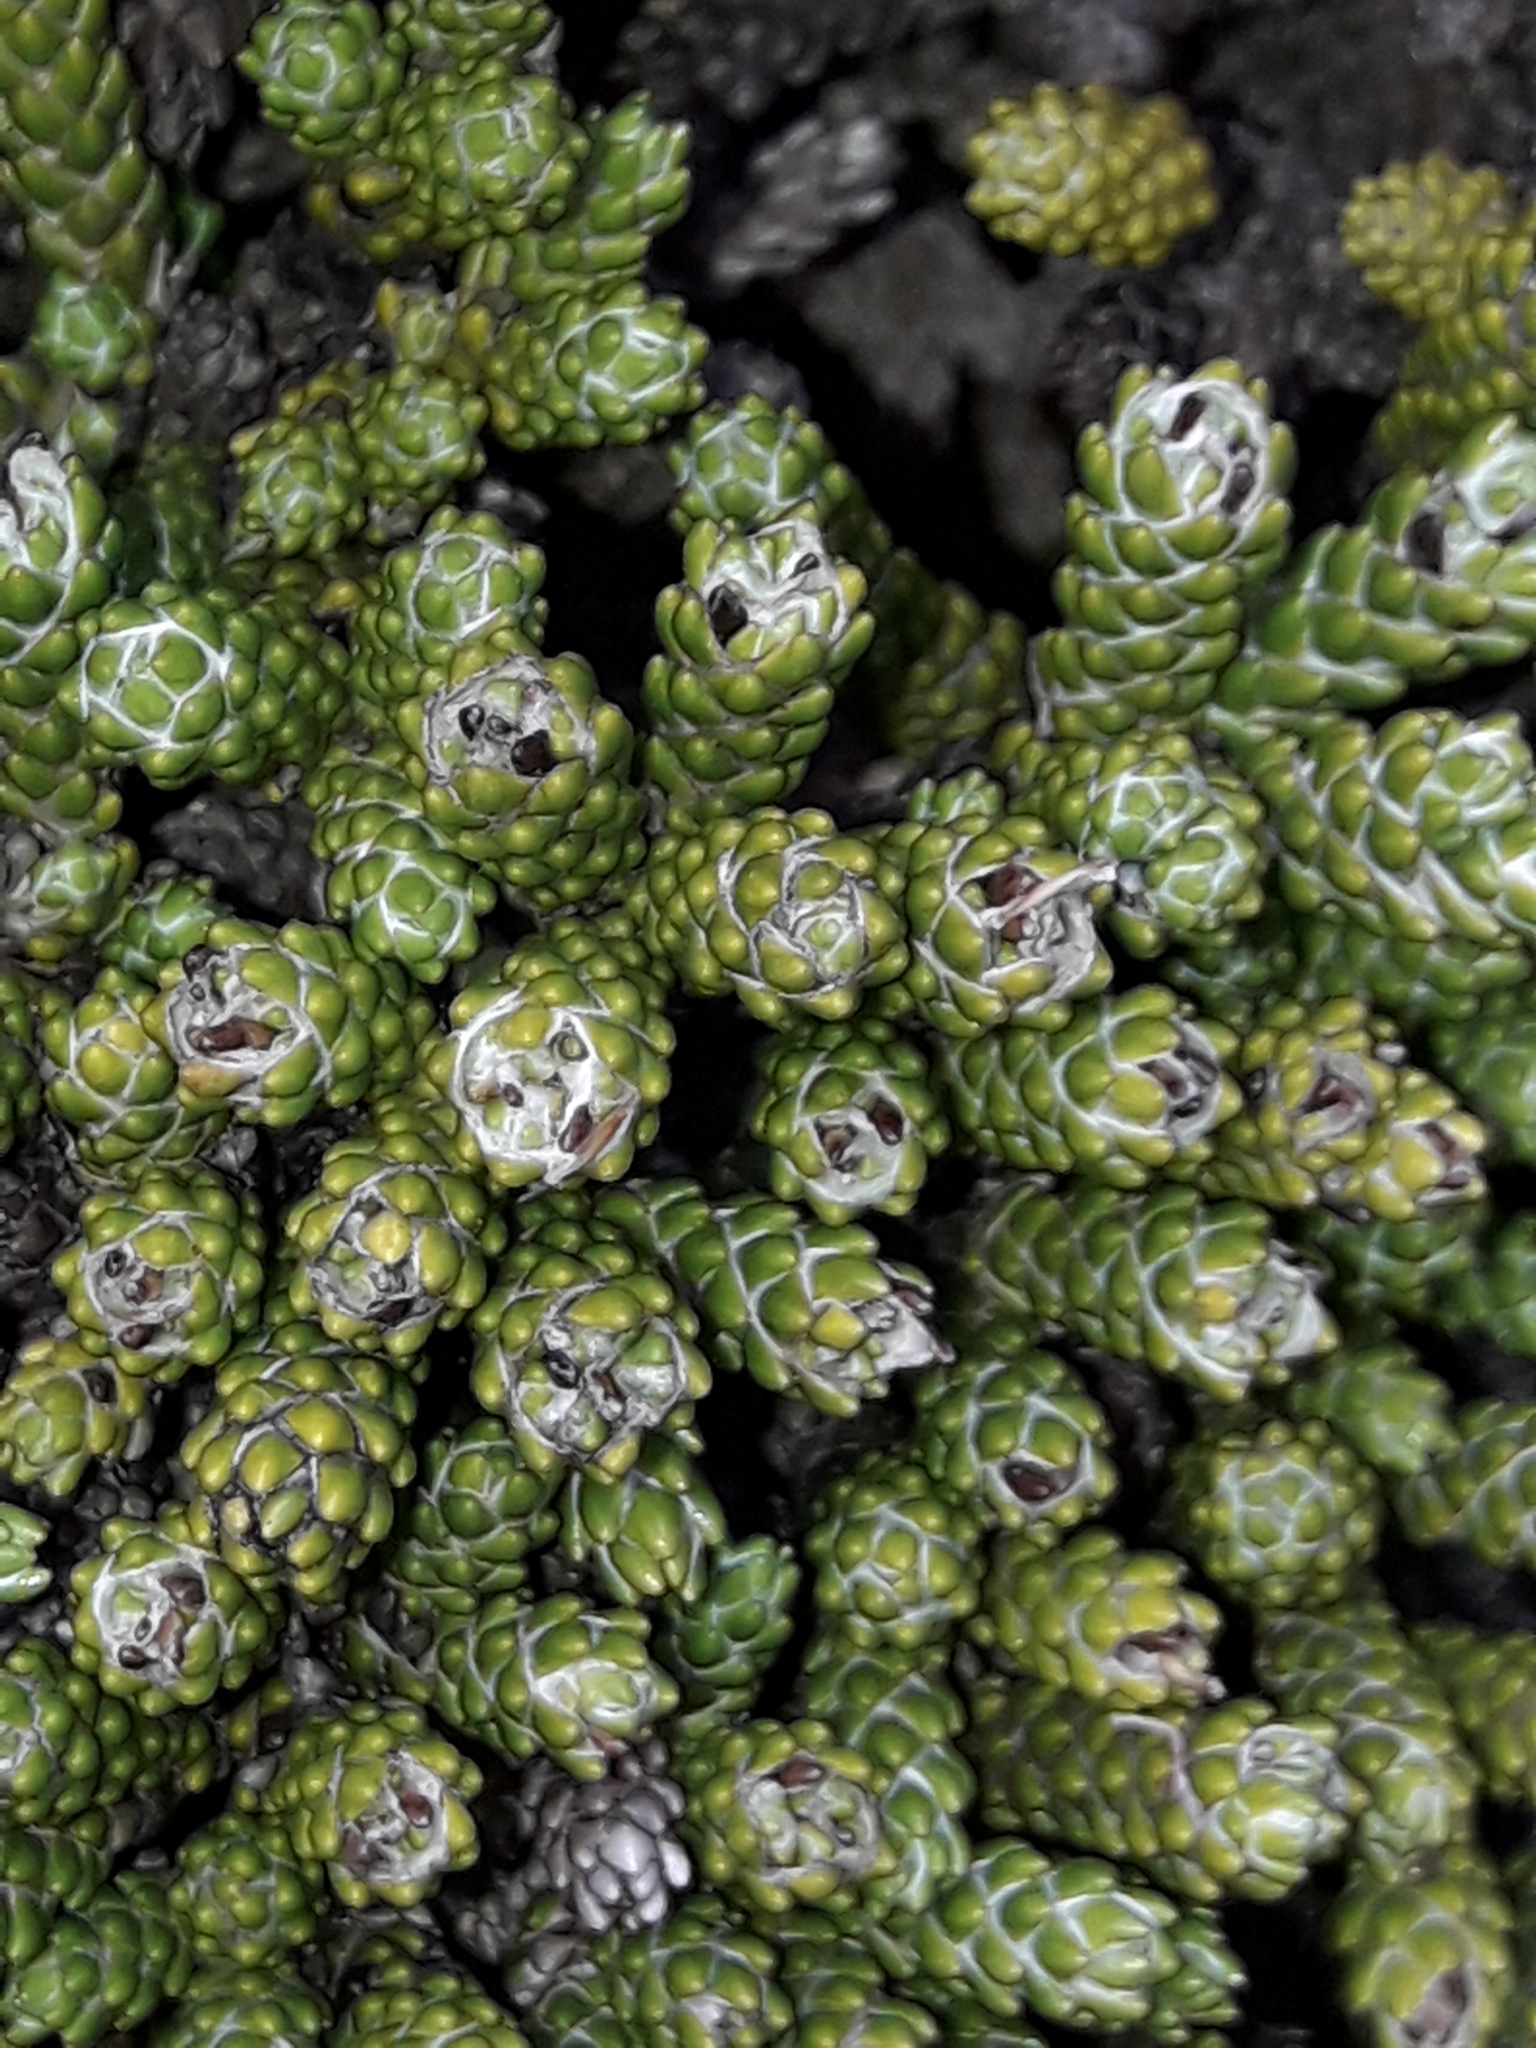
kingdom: Plantae
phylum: Tracheophyta
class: Magnoliopsida
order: Asterales
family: Asteraceae
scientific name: Asteraceae
